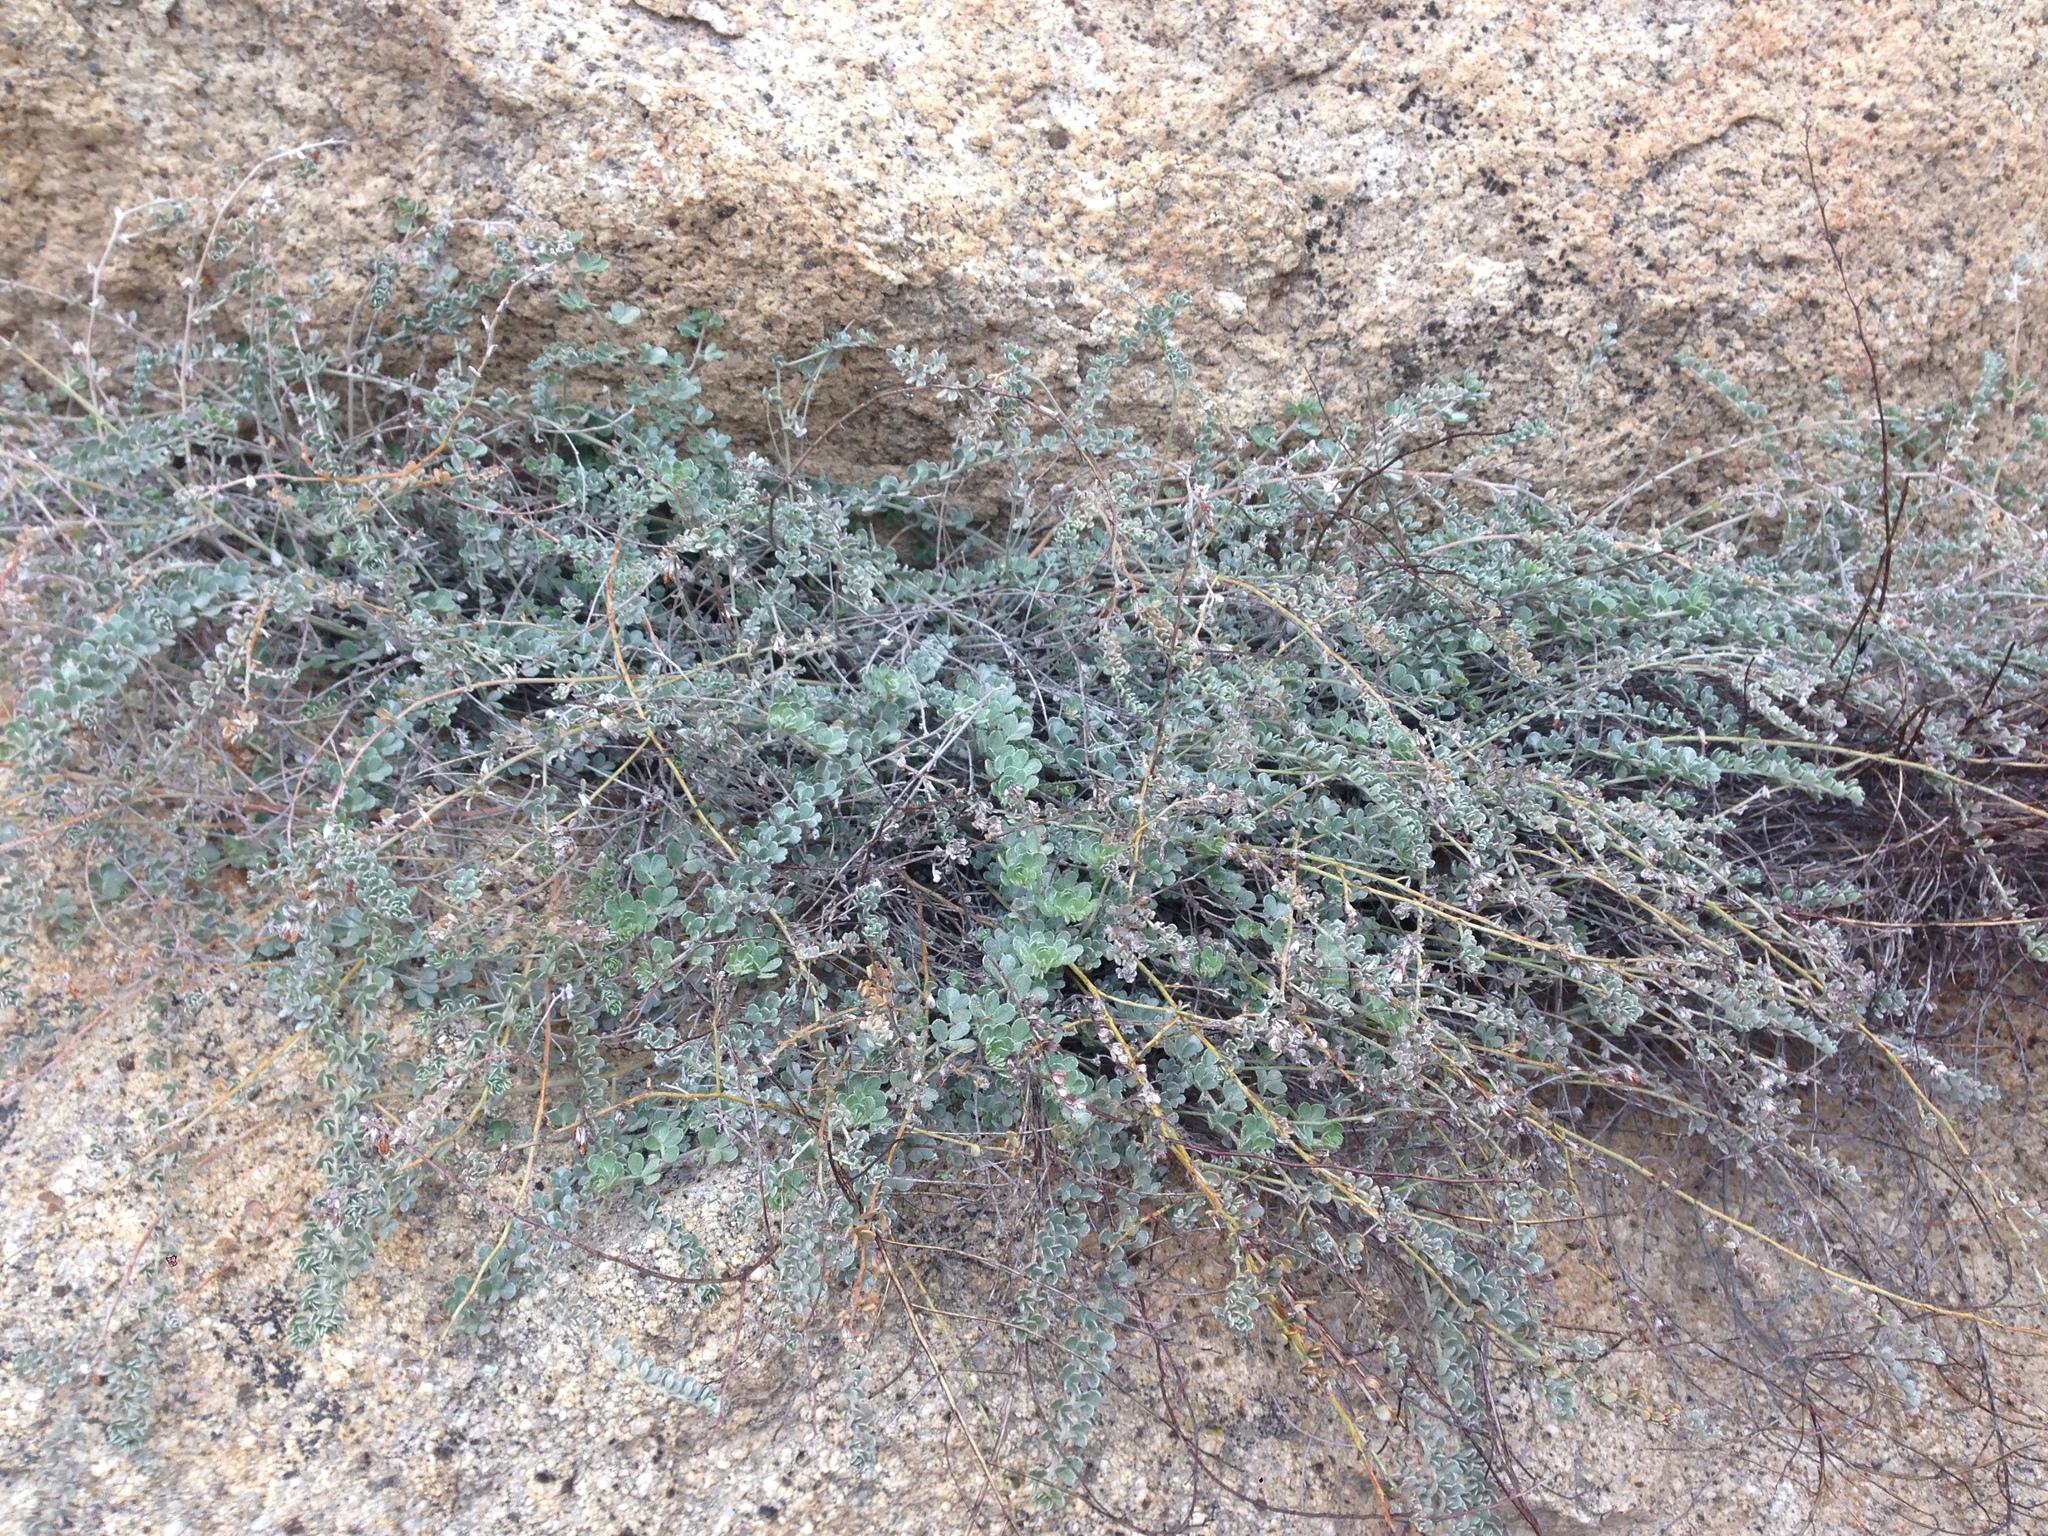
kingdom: Plantae
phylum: Tracheophyta
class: Magnoliopsida
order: Fabales
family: Fabaceae
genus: Acmispon
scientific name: Acmispon argophyllus
